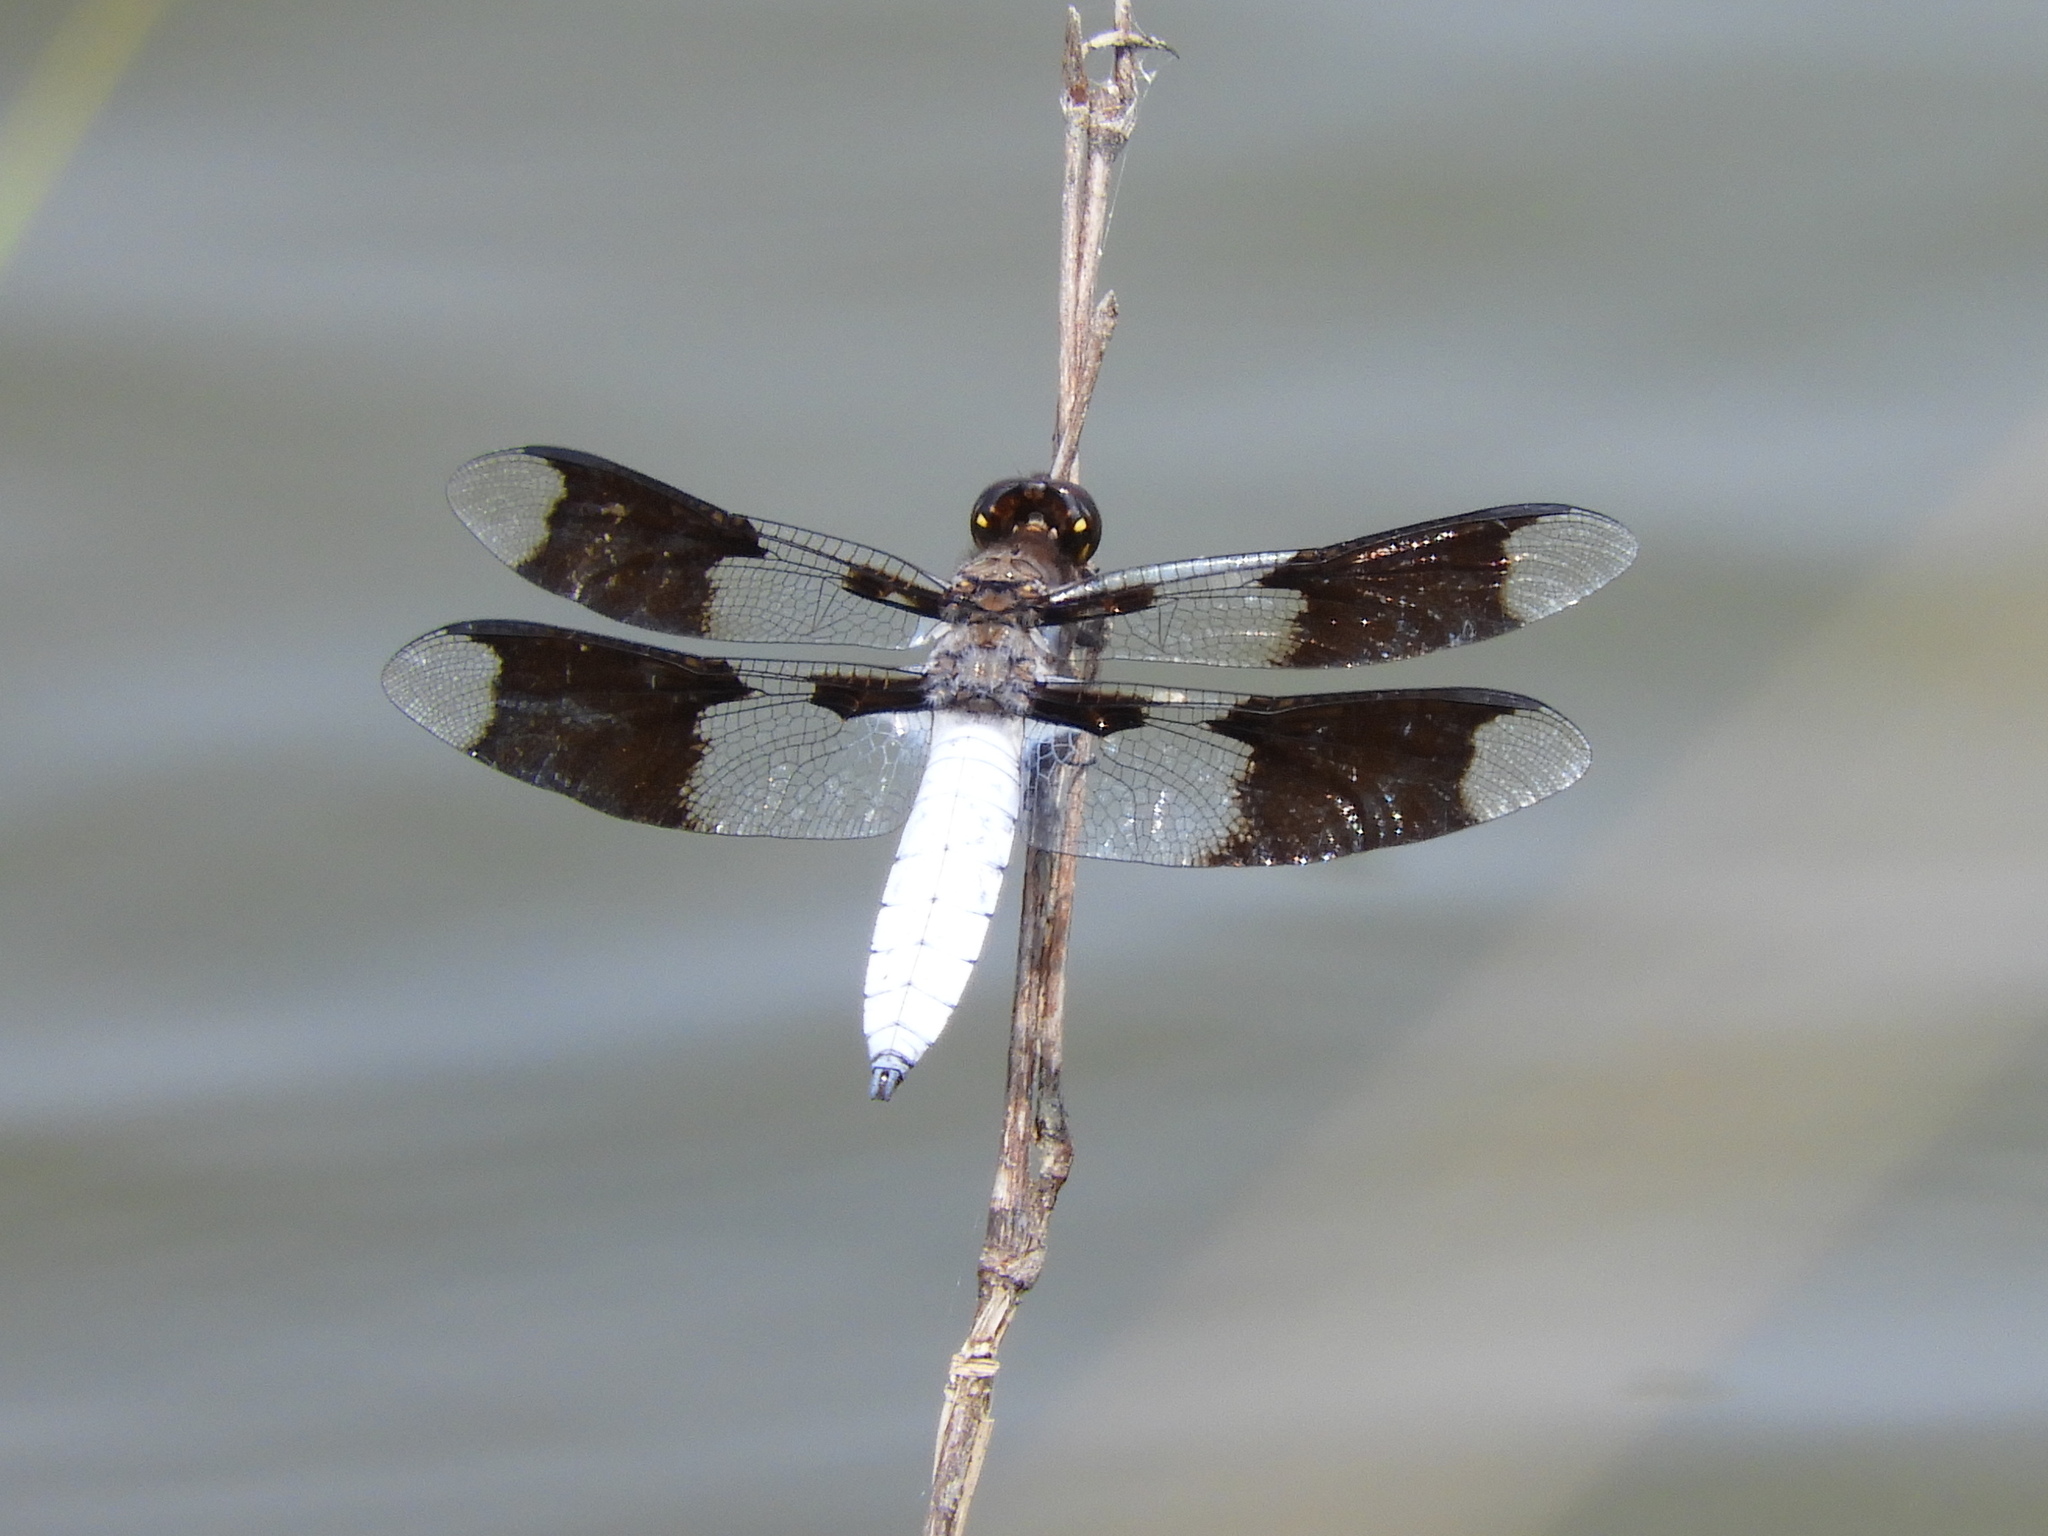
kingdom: Animalia
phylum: Arthropoda
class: Insecta
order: Odonata
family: Libellulidae
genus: Plathemis
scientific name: Plathemis lydia
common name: Common whitetail
